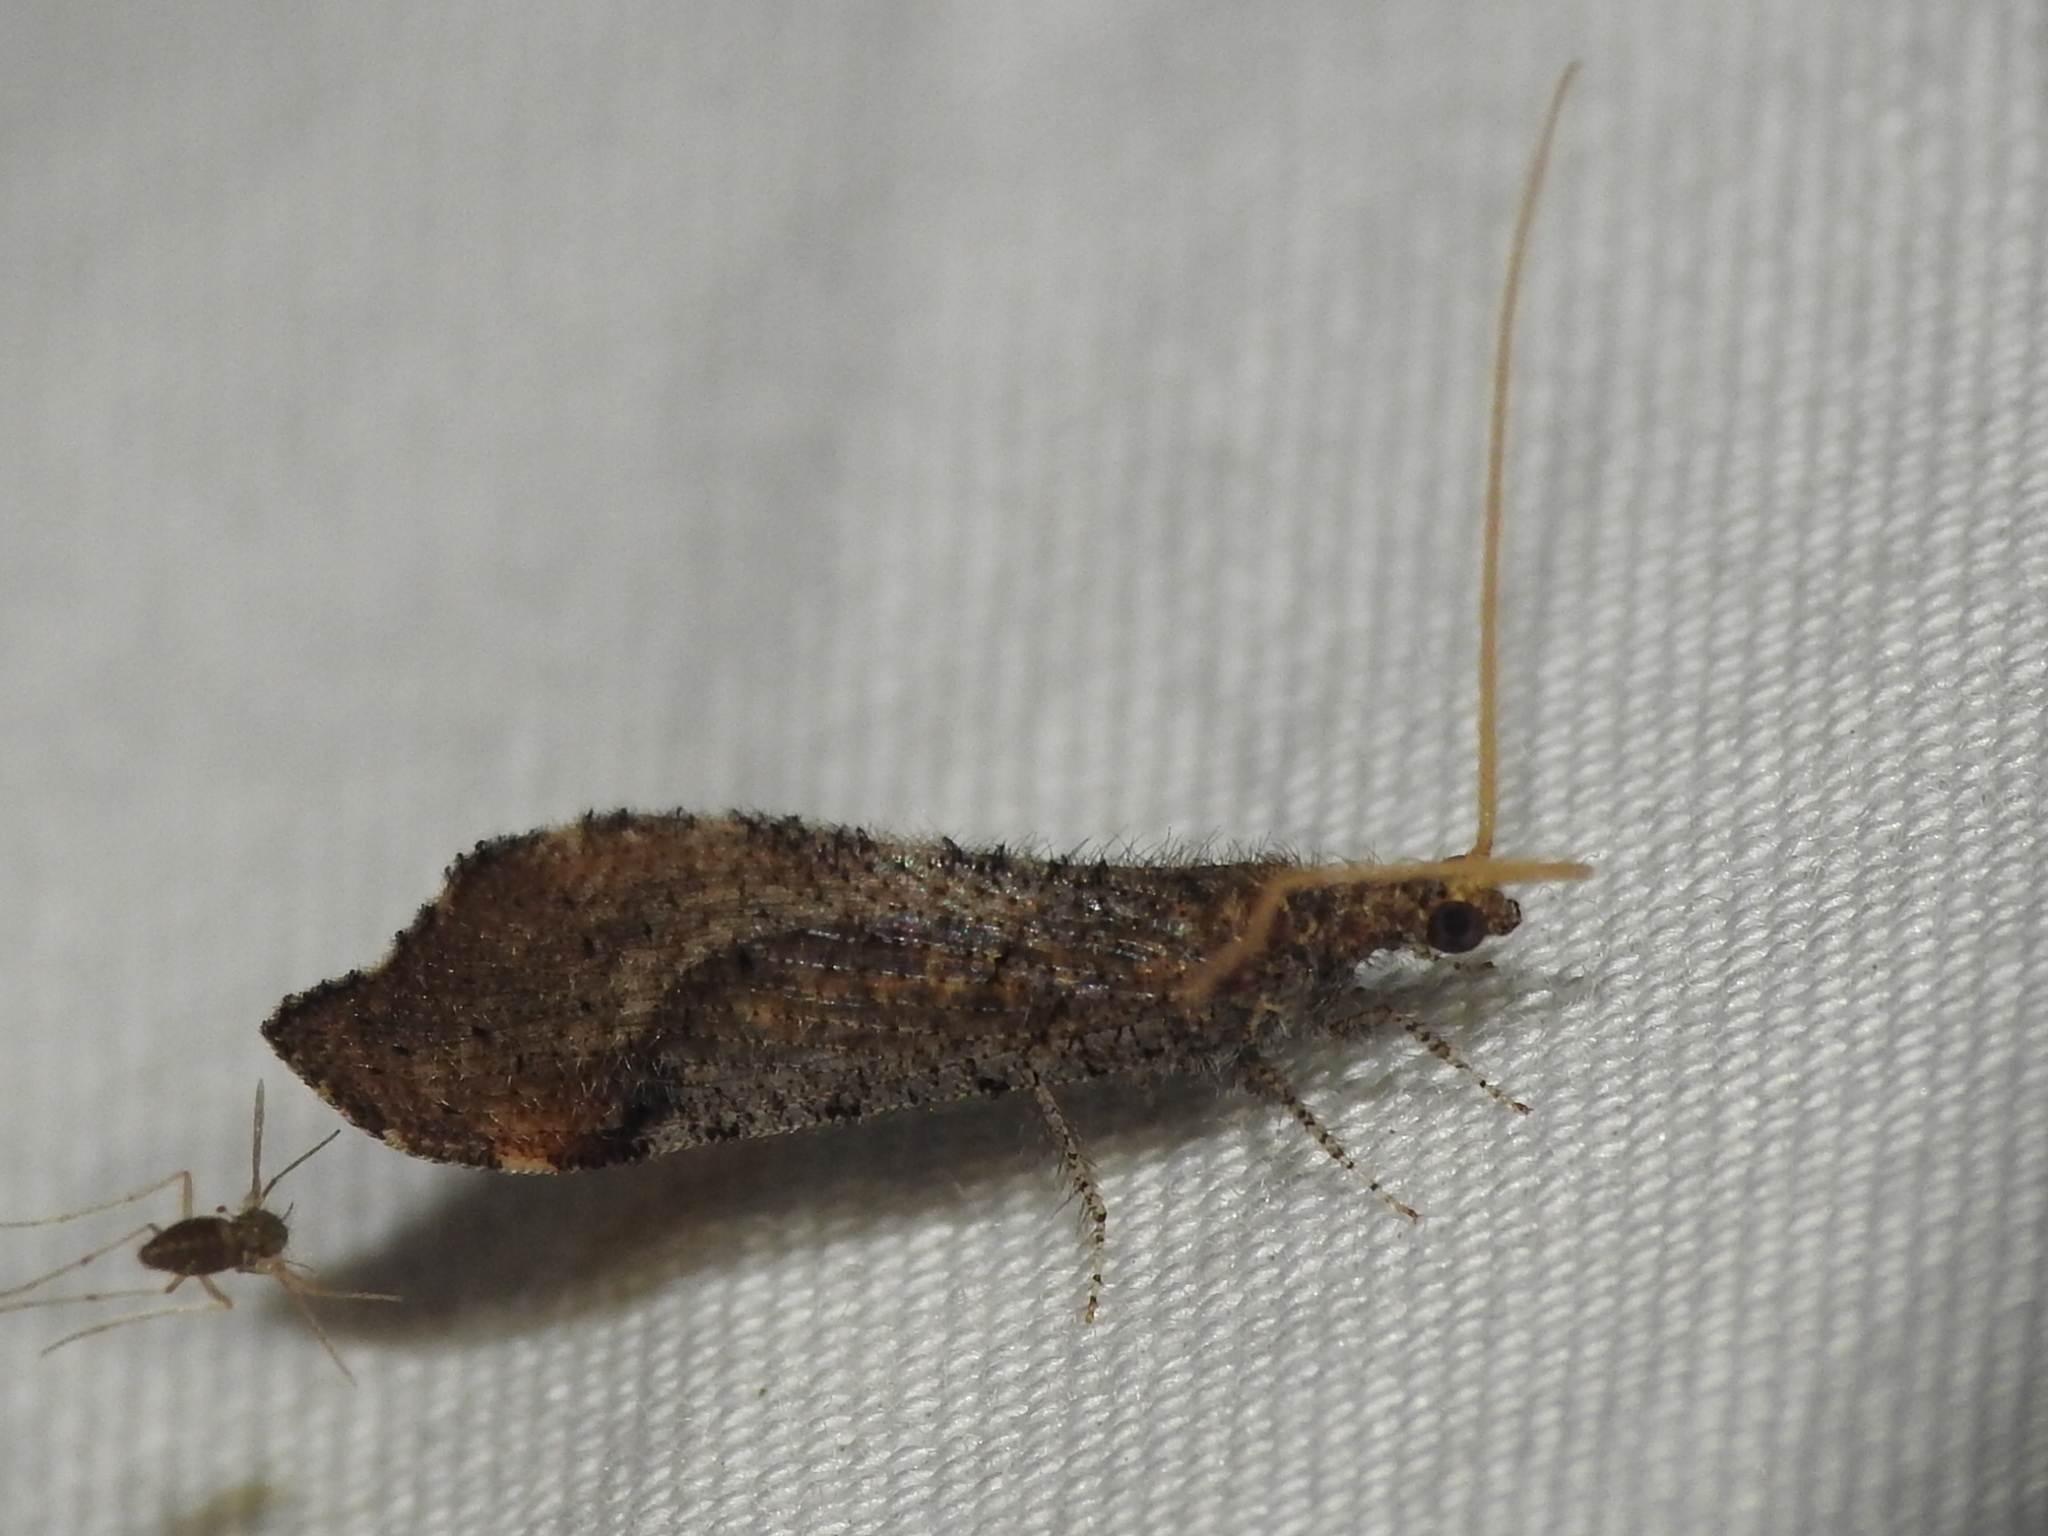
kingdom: Animalia
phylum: Arthropoda
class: Insecta
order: Neuroptera
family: Berothidae
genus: Lomamyia
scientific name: Lomamyia squamosa
